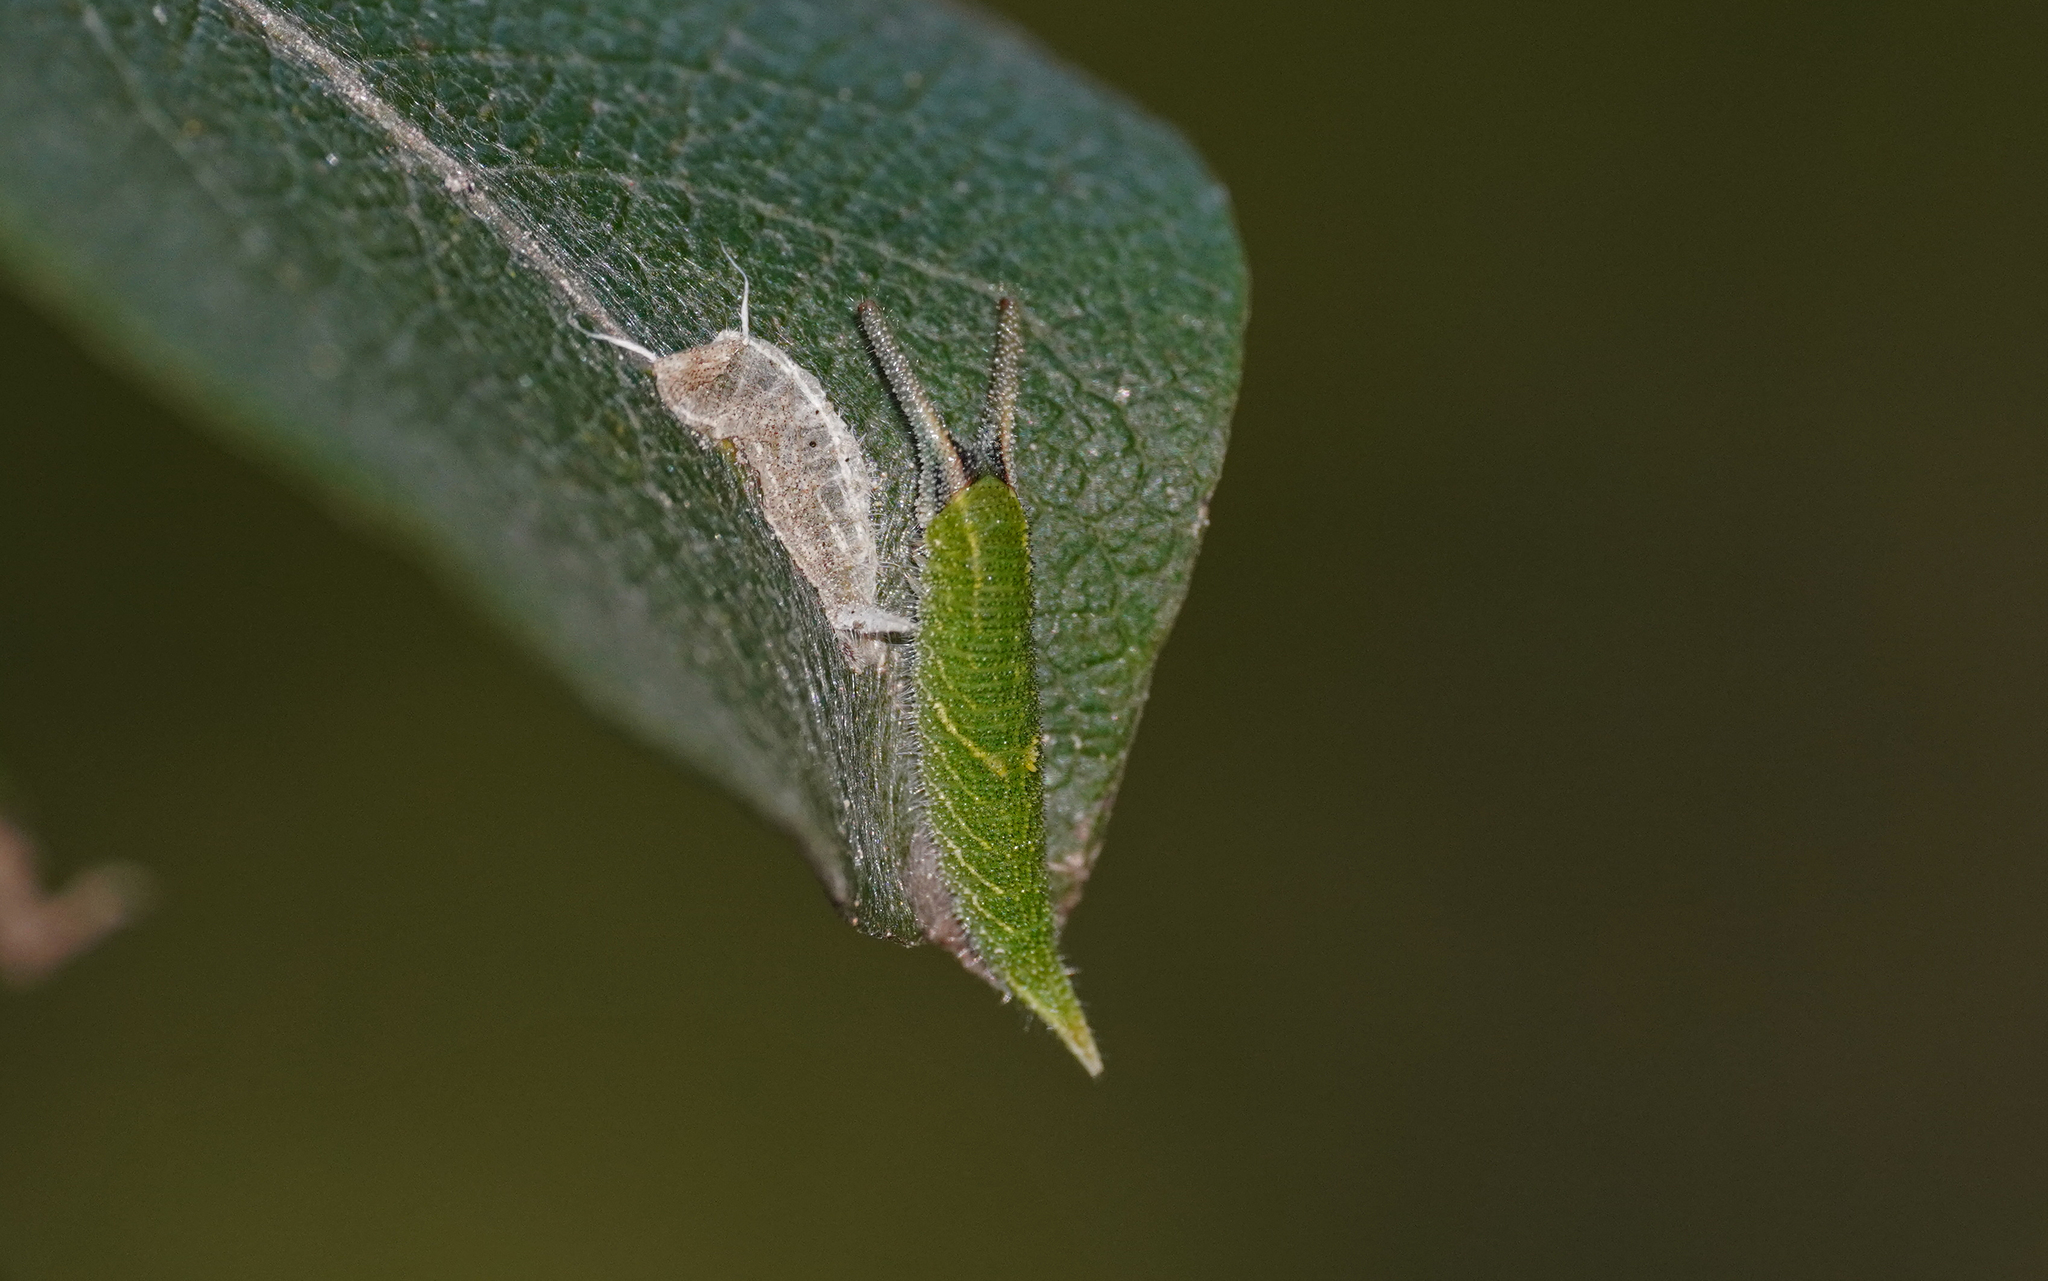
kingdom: Animalia
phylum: Arthropoda
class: Insecta
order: Lepidoptera
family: Nymphalidae
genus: Apatura
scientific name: Apatura iris
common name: Purple emperor
